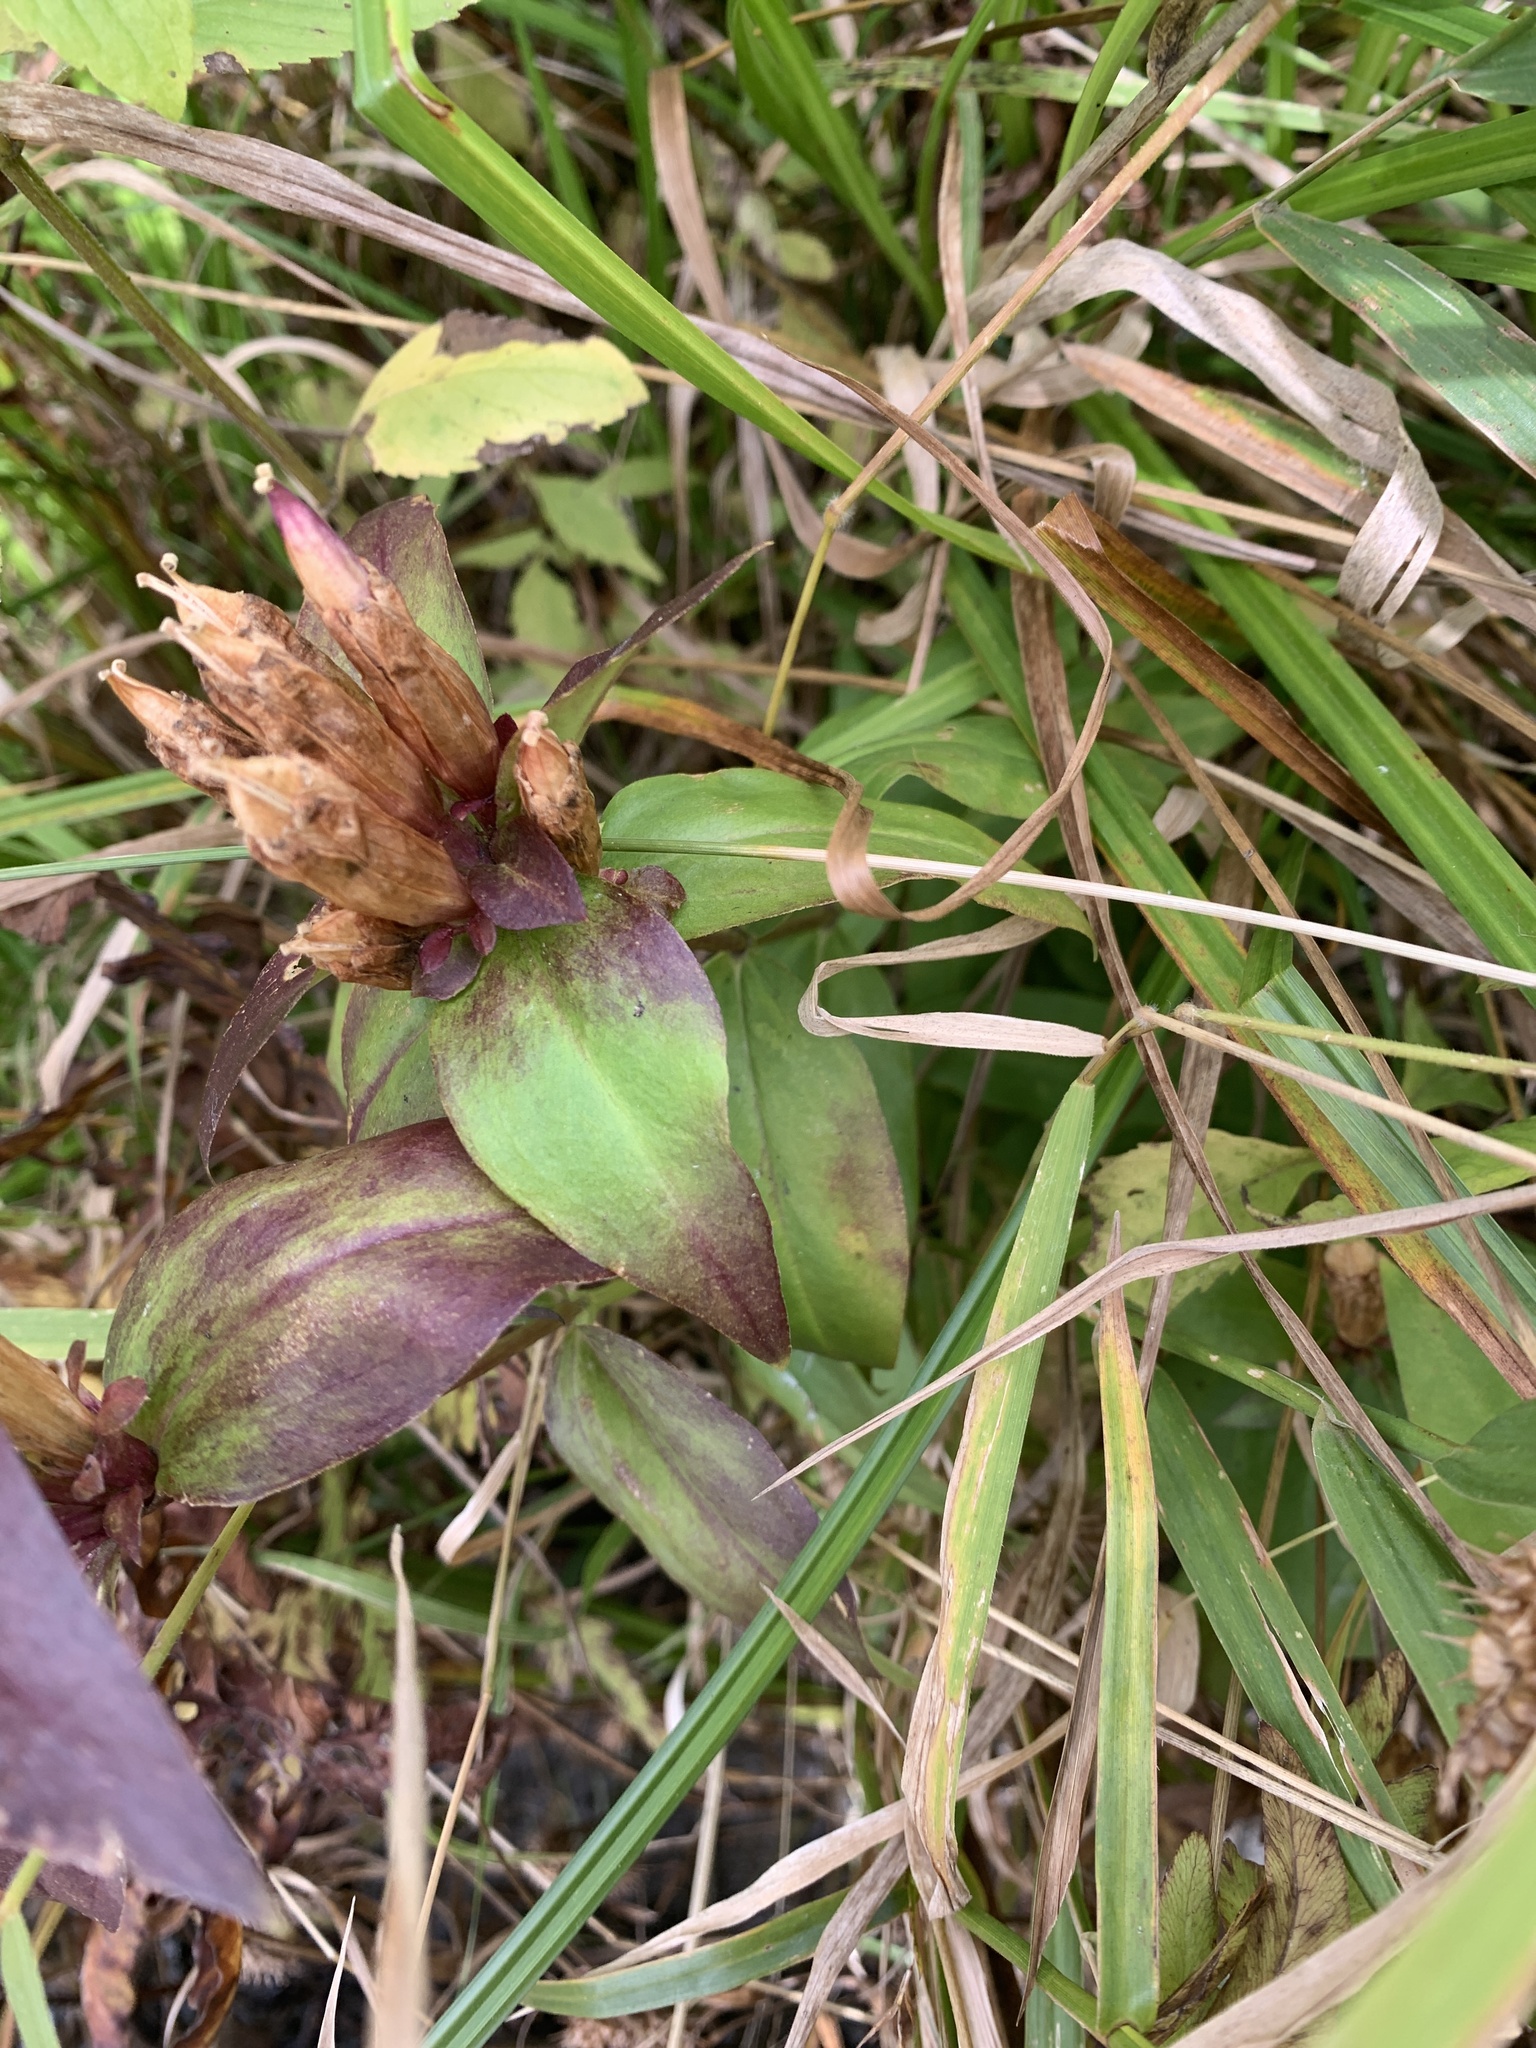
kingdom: Plantae
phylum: Tracheophyta
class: Magnoliopsida
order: Gentianales
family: Gentianaceae
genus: Gentiana
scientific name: Gentiana clausa
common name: Blind gentian
